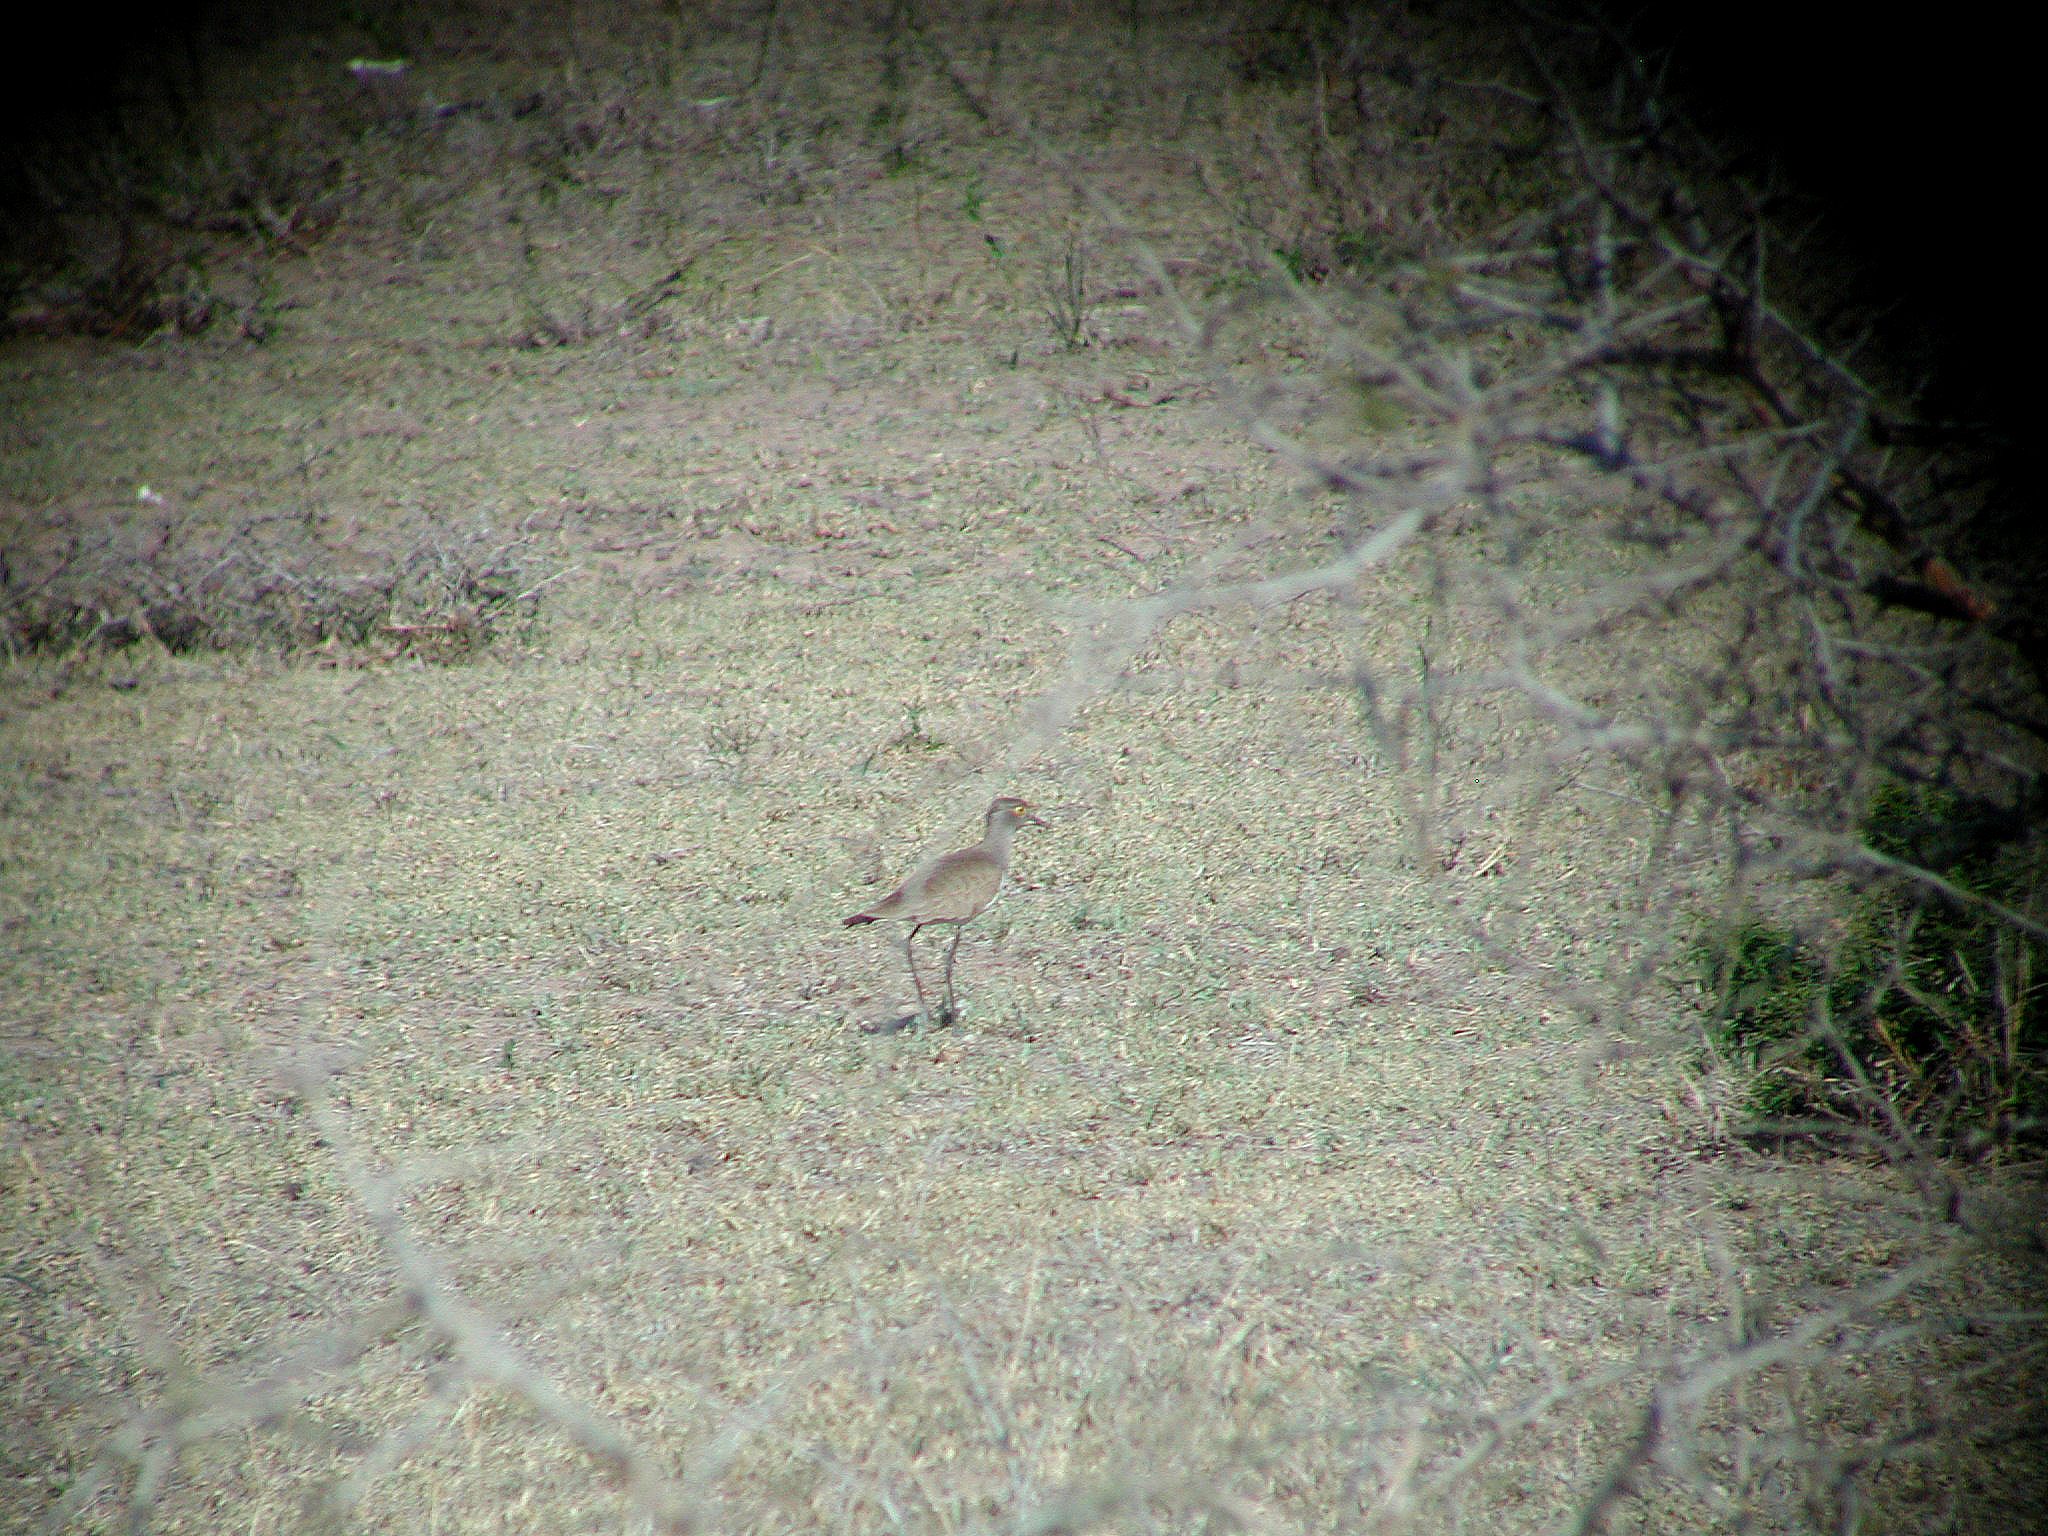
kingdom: Animalia
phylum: Chordata
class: Aves
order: Charadriiformes
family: Charadriidae
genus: Vanellus
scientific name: Vanellus lugubris
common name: Senegal lapwing
